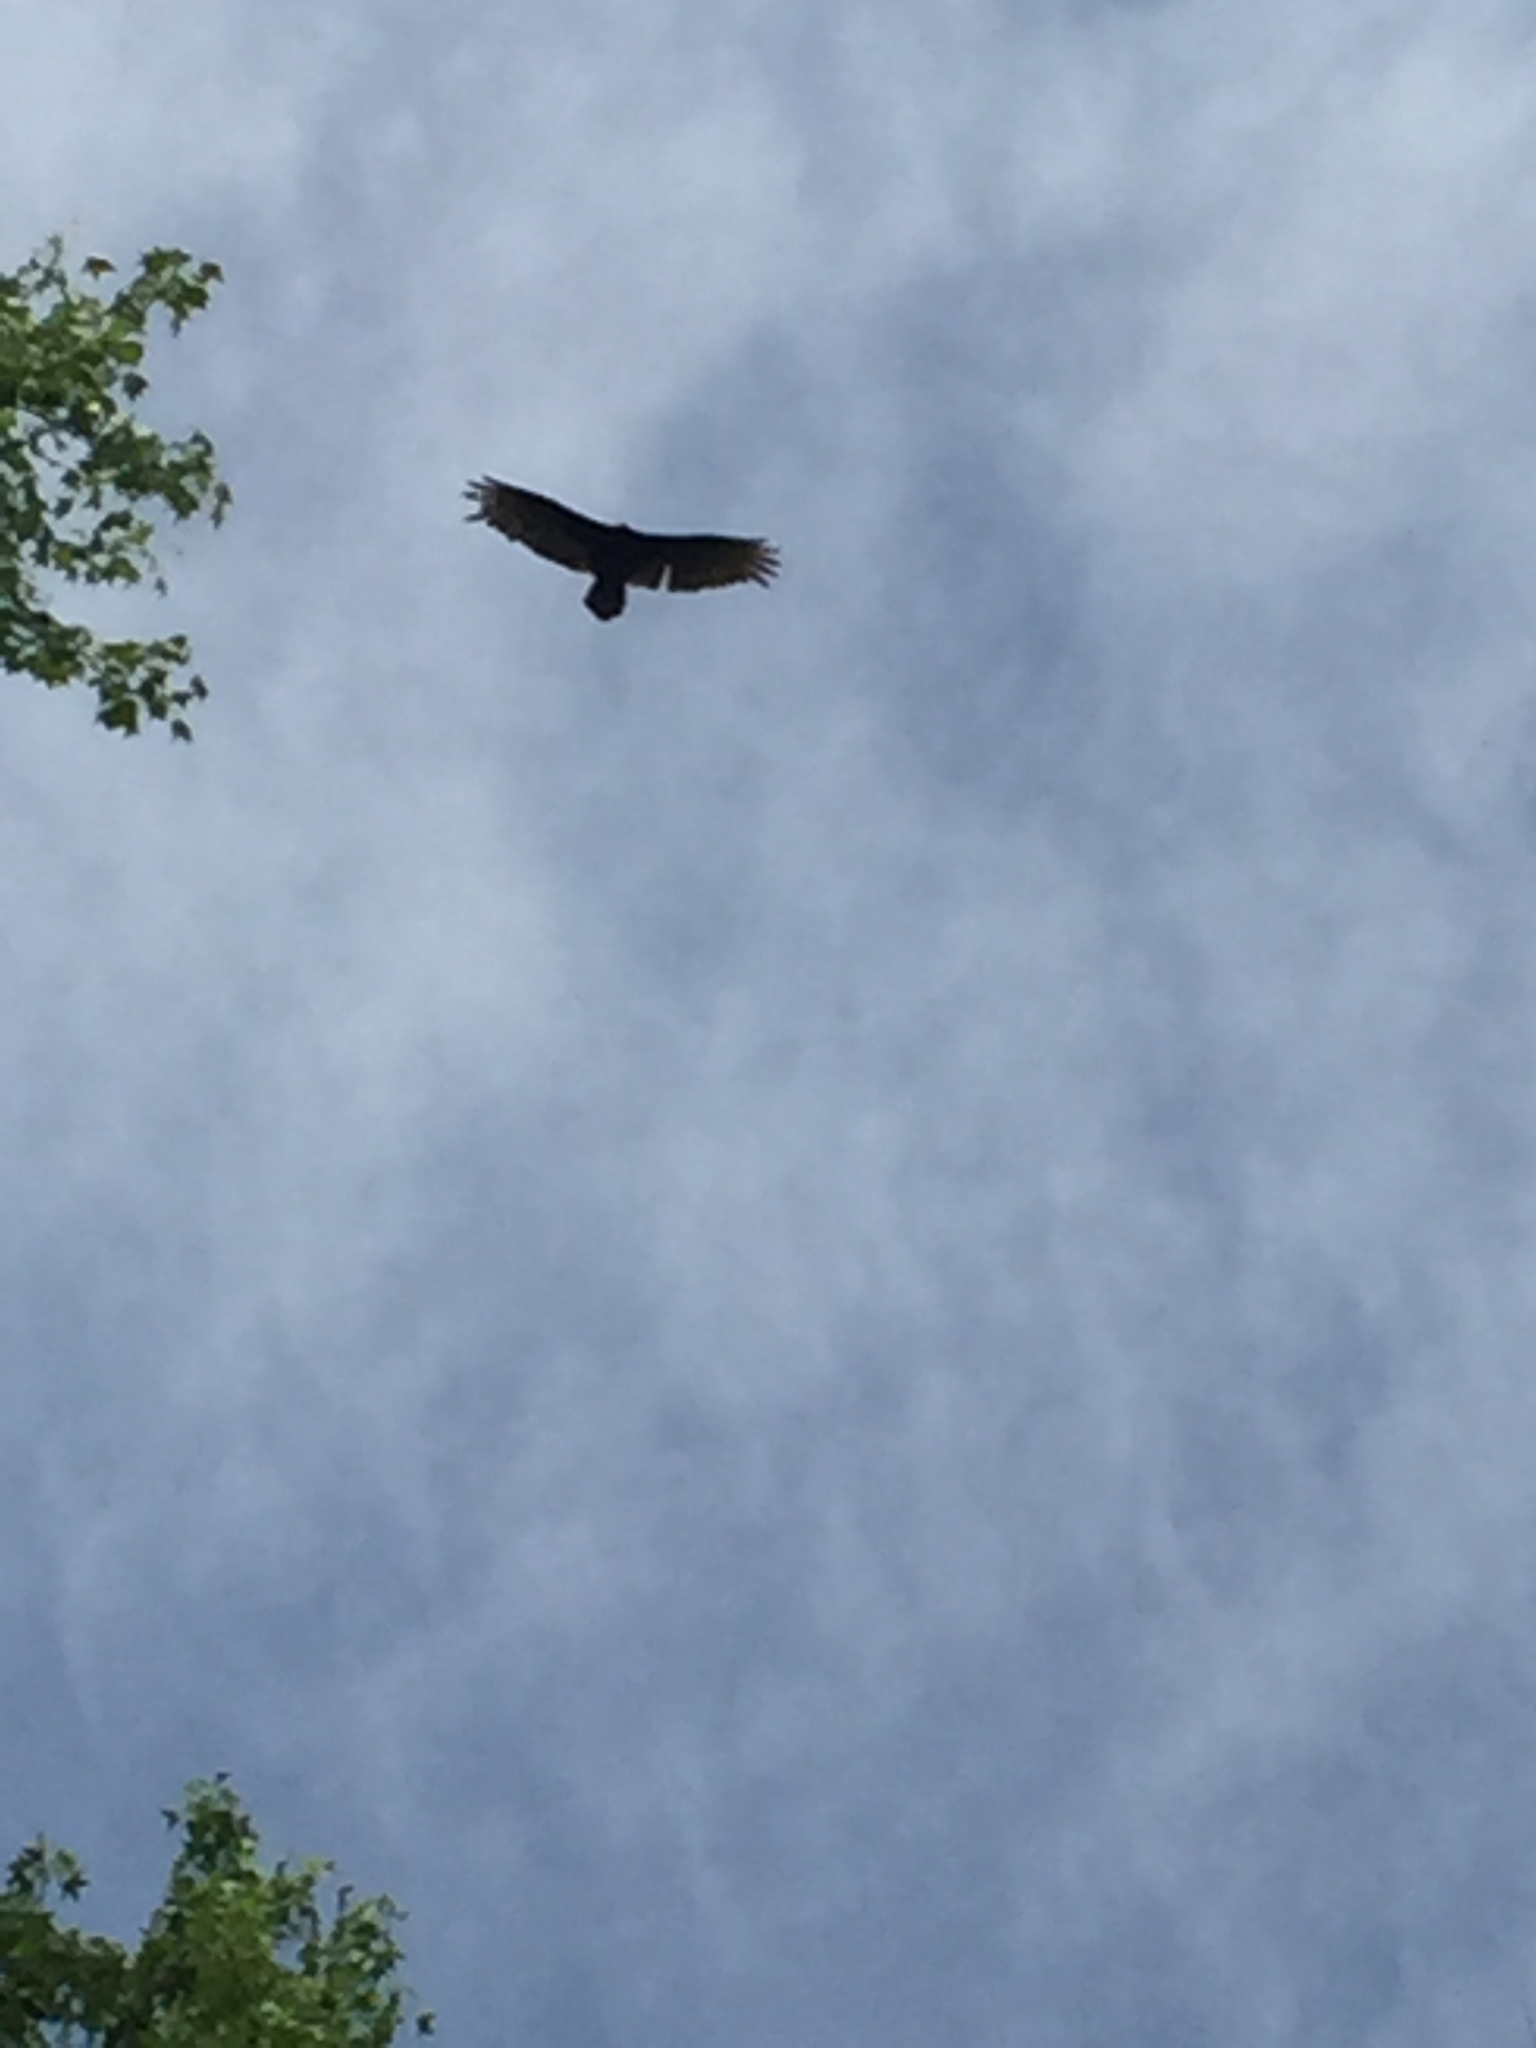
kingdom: Animalia
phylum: Chordata
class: Aves
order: Accipitriformes
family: Cathartidae
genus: Cathartes
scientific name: Cathartes aura
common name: Turkey vulture
